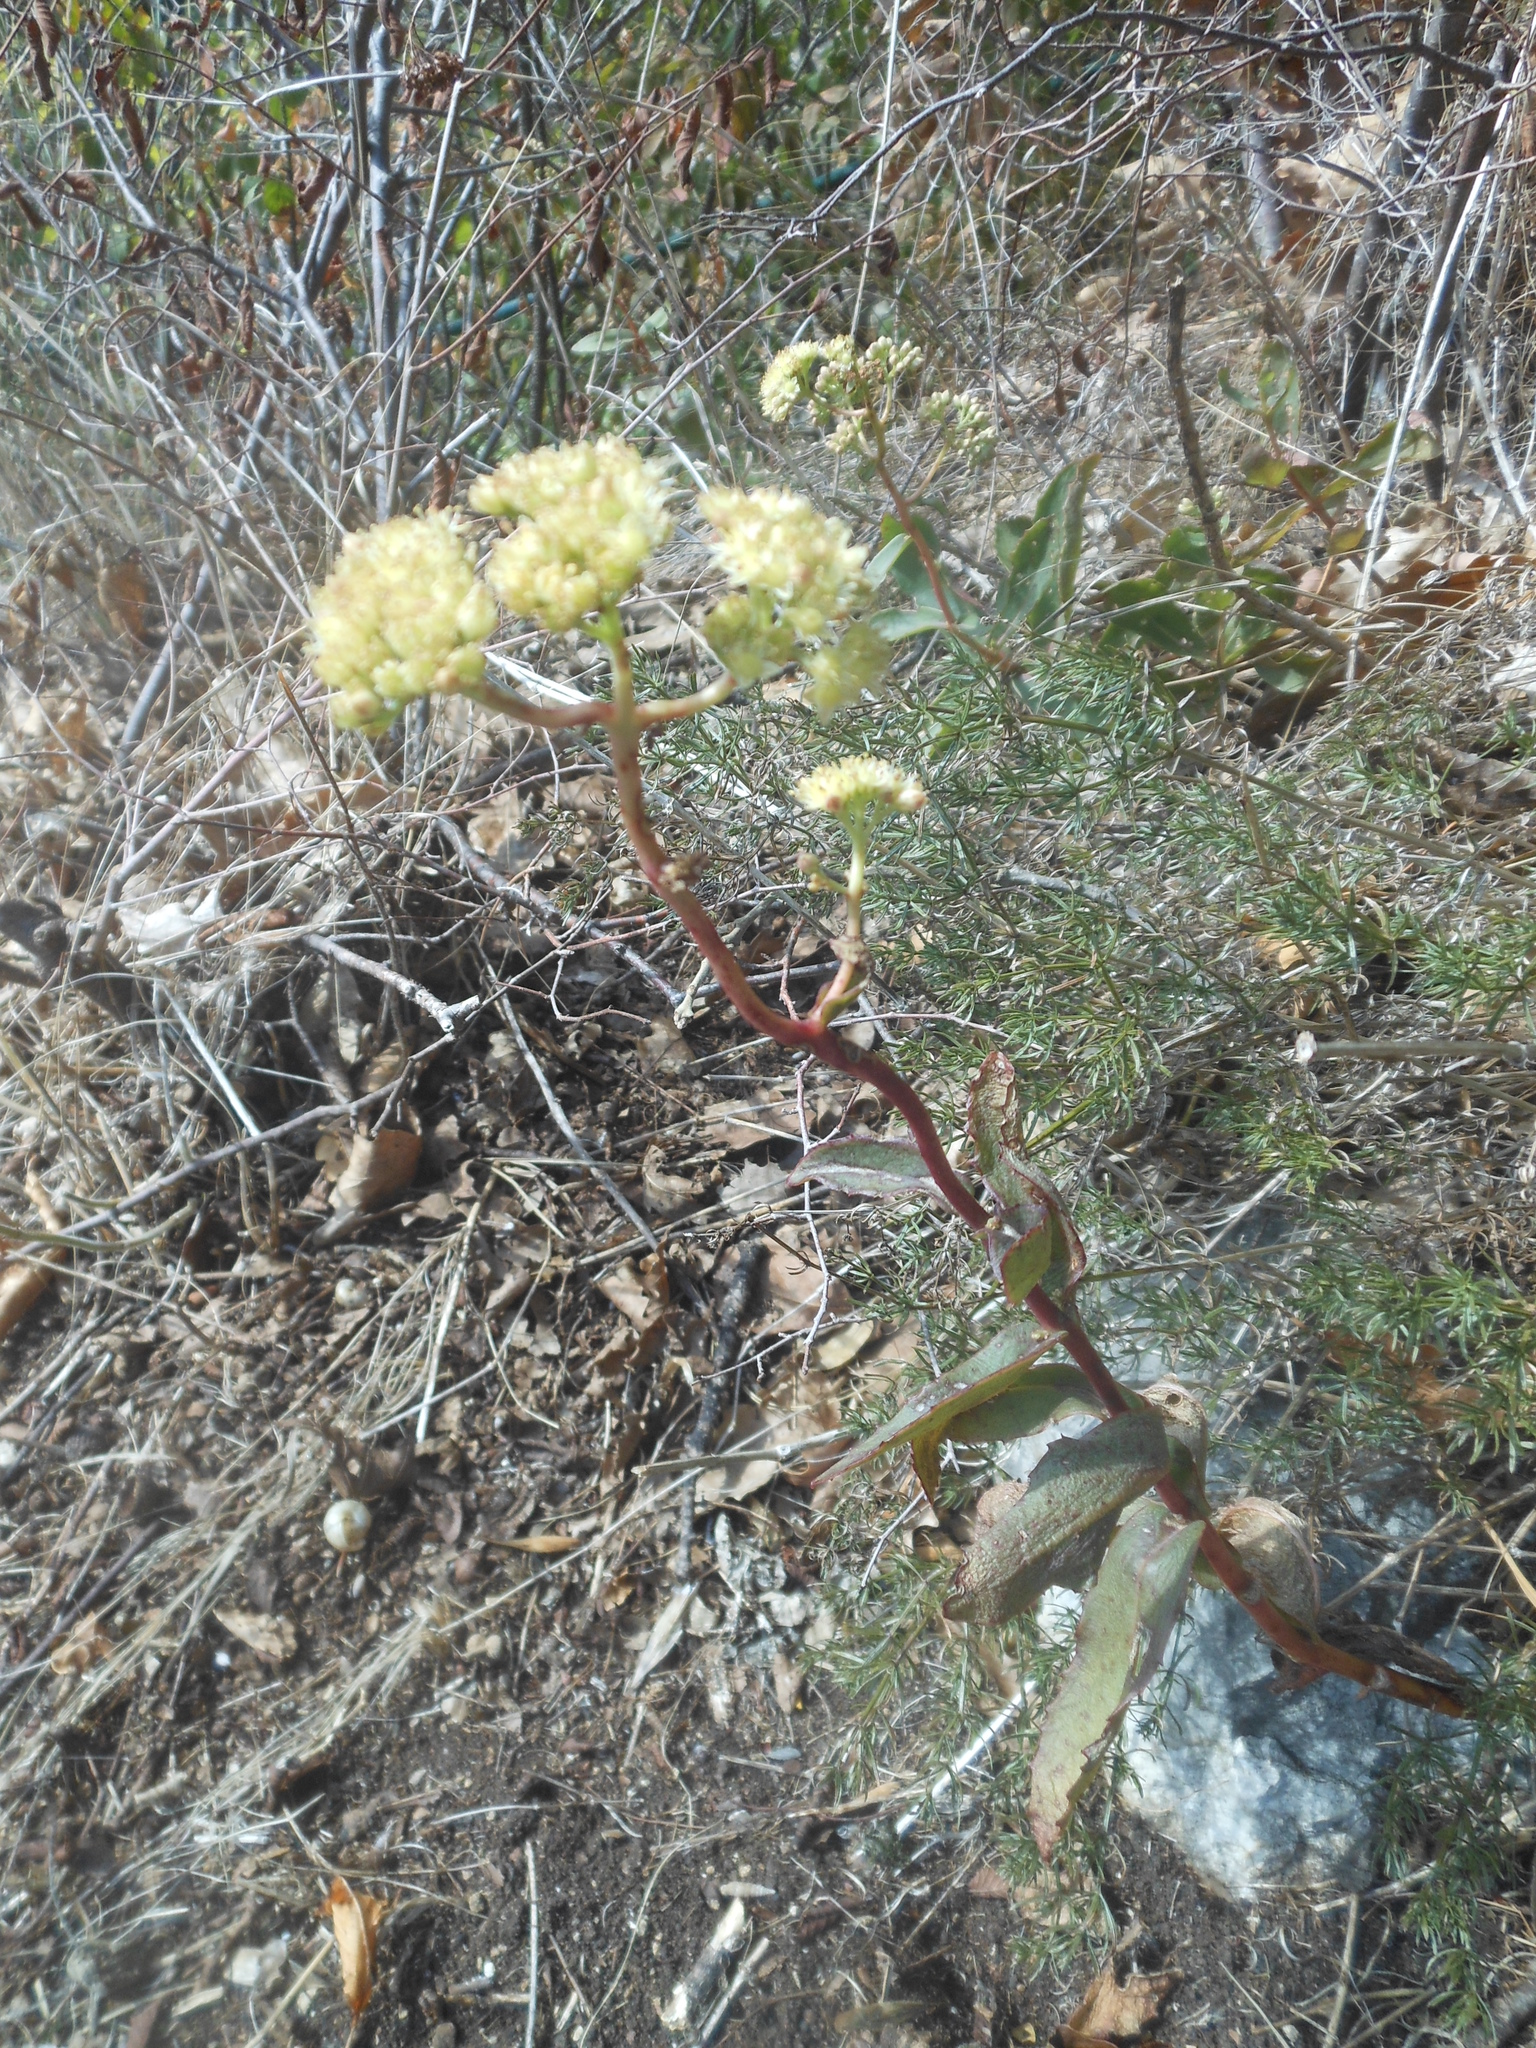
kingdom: Plantae
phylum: Tracheophyta
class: Magnoliopsida
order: Saxifragales
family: Crassulaceae
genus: Hylotelephium
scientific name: Hylotelephium maximum
